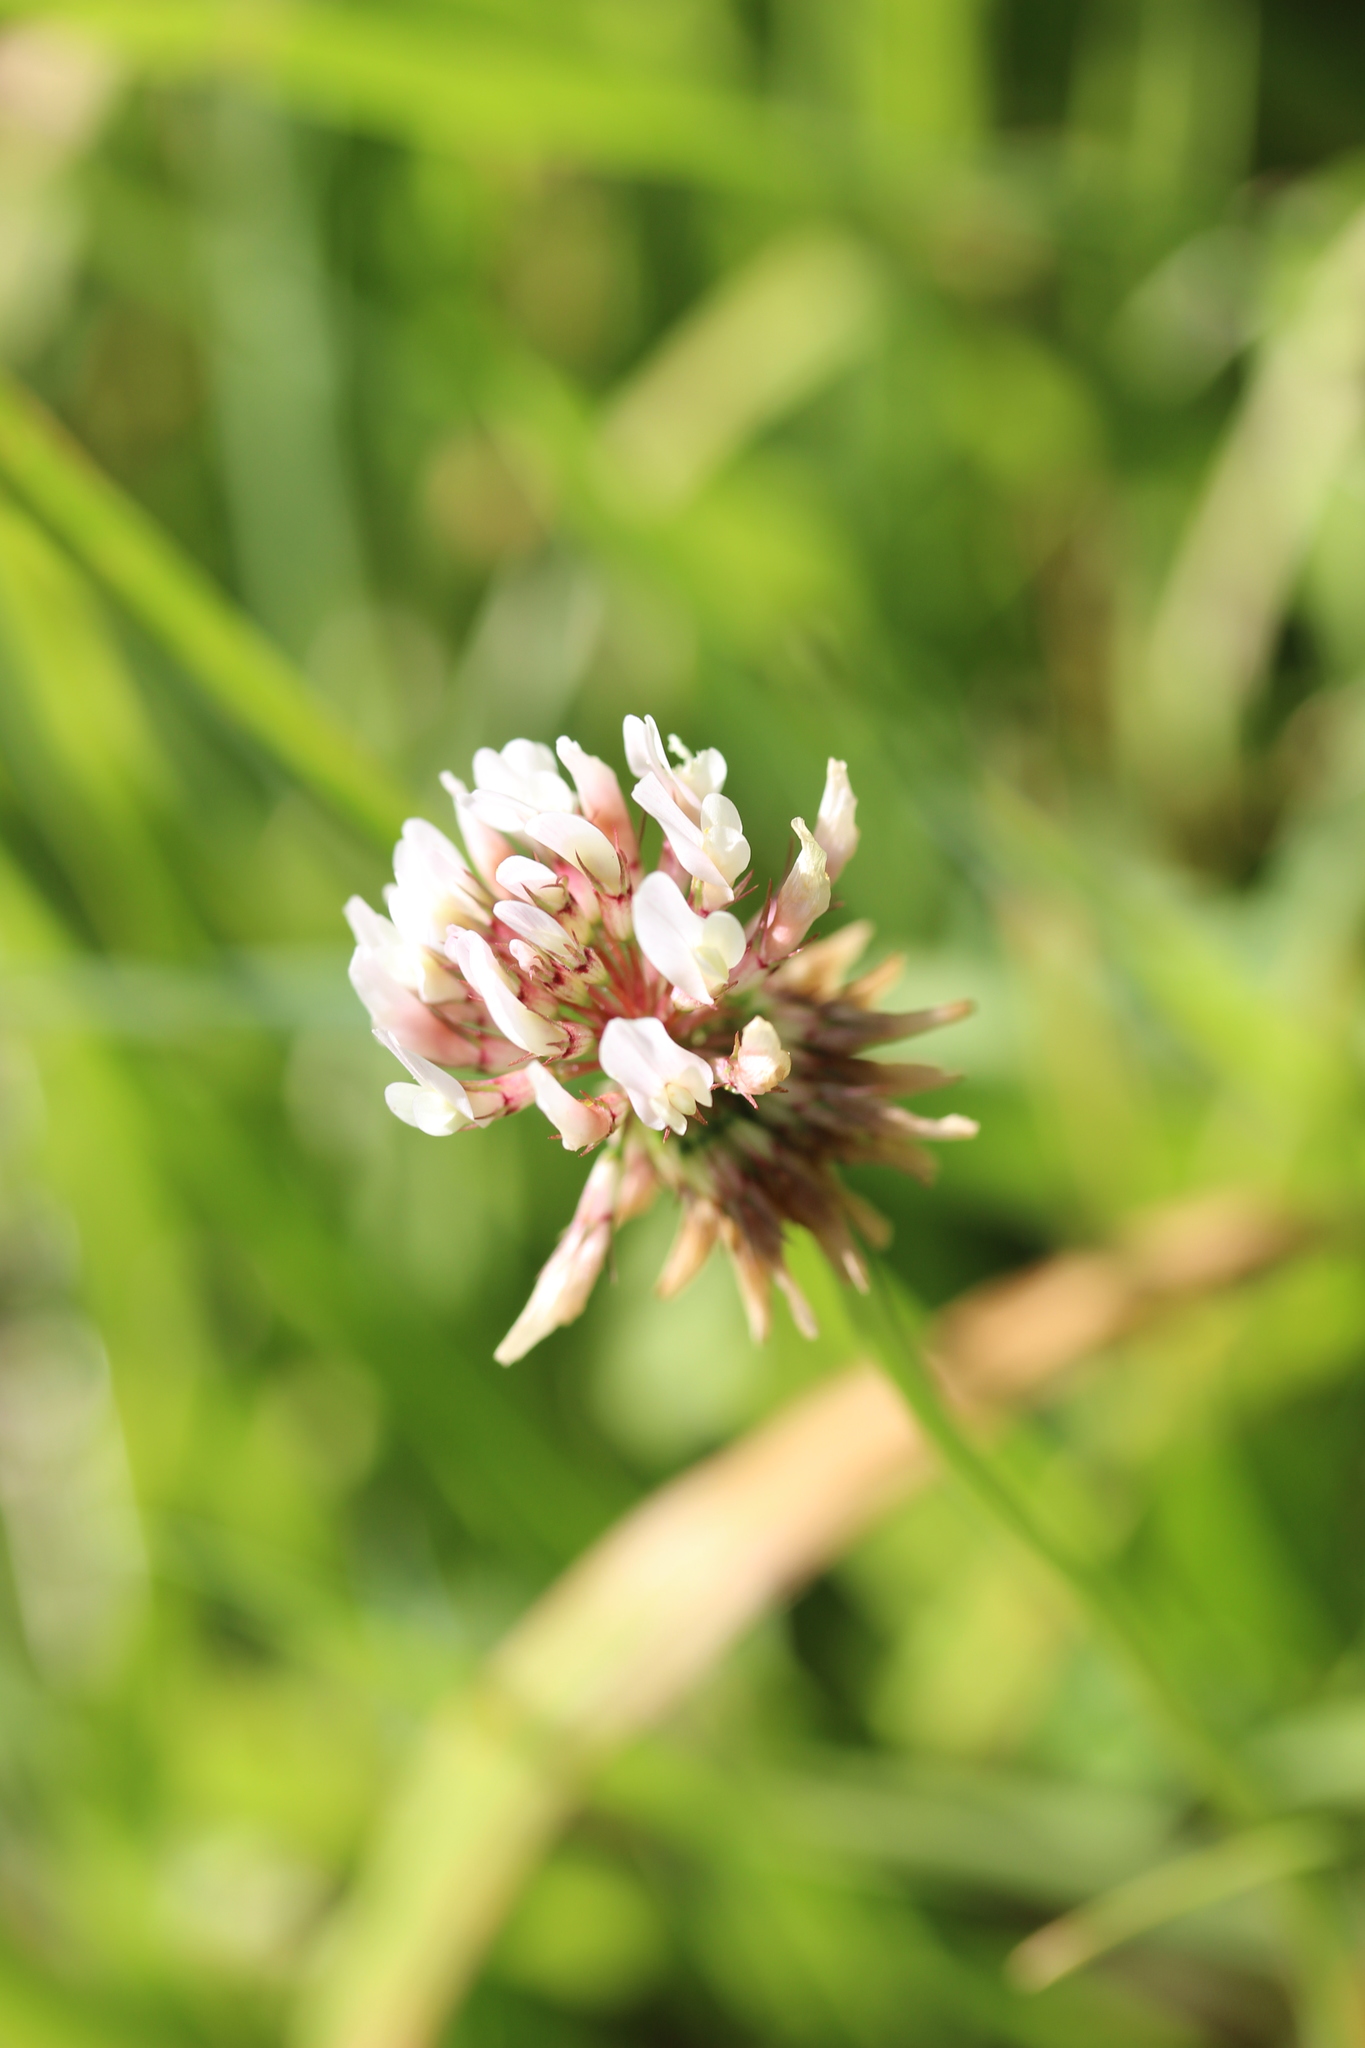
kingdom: Plantae
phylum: Tracheophyta
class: Magnoliopsida
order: Fabales
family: Fabaceae
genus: Trifolium
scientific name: Trifolium repens
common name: White clover
